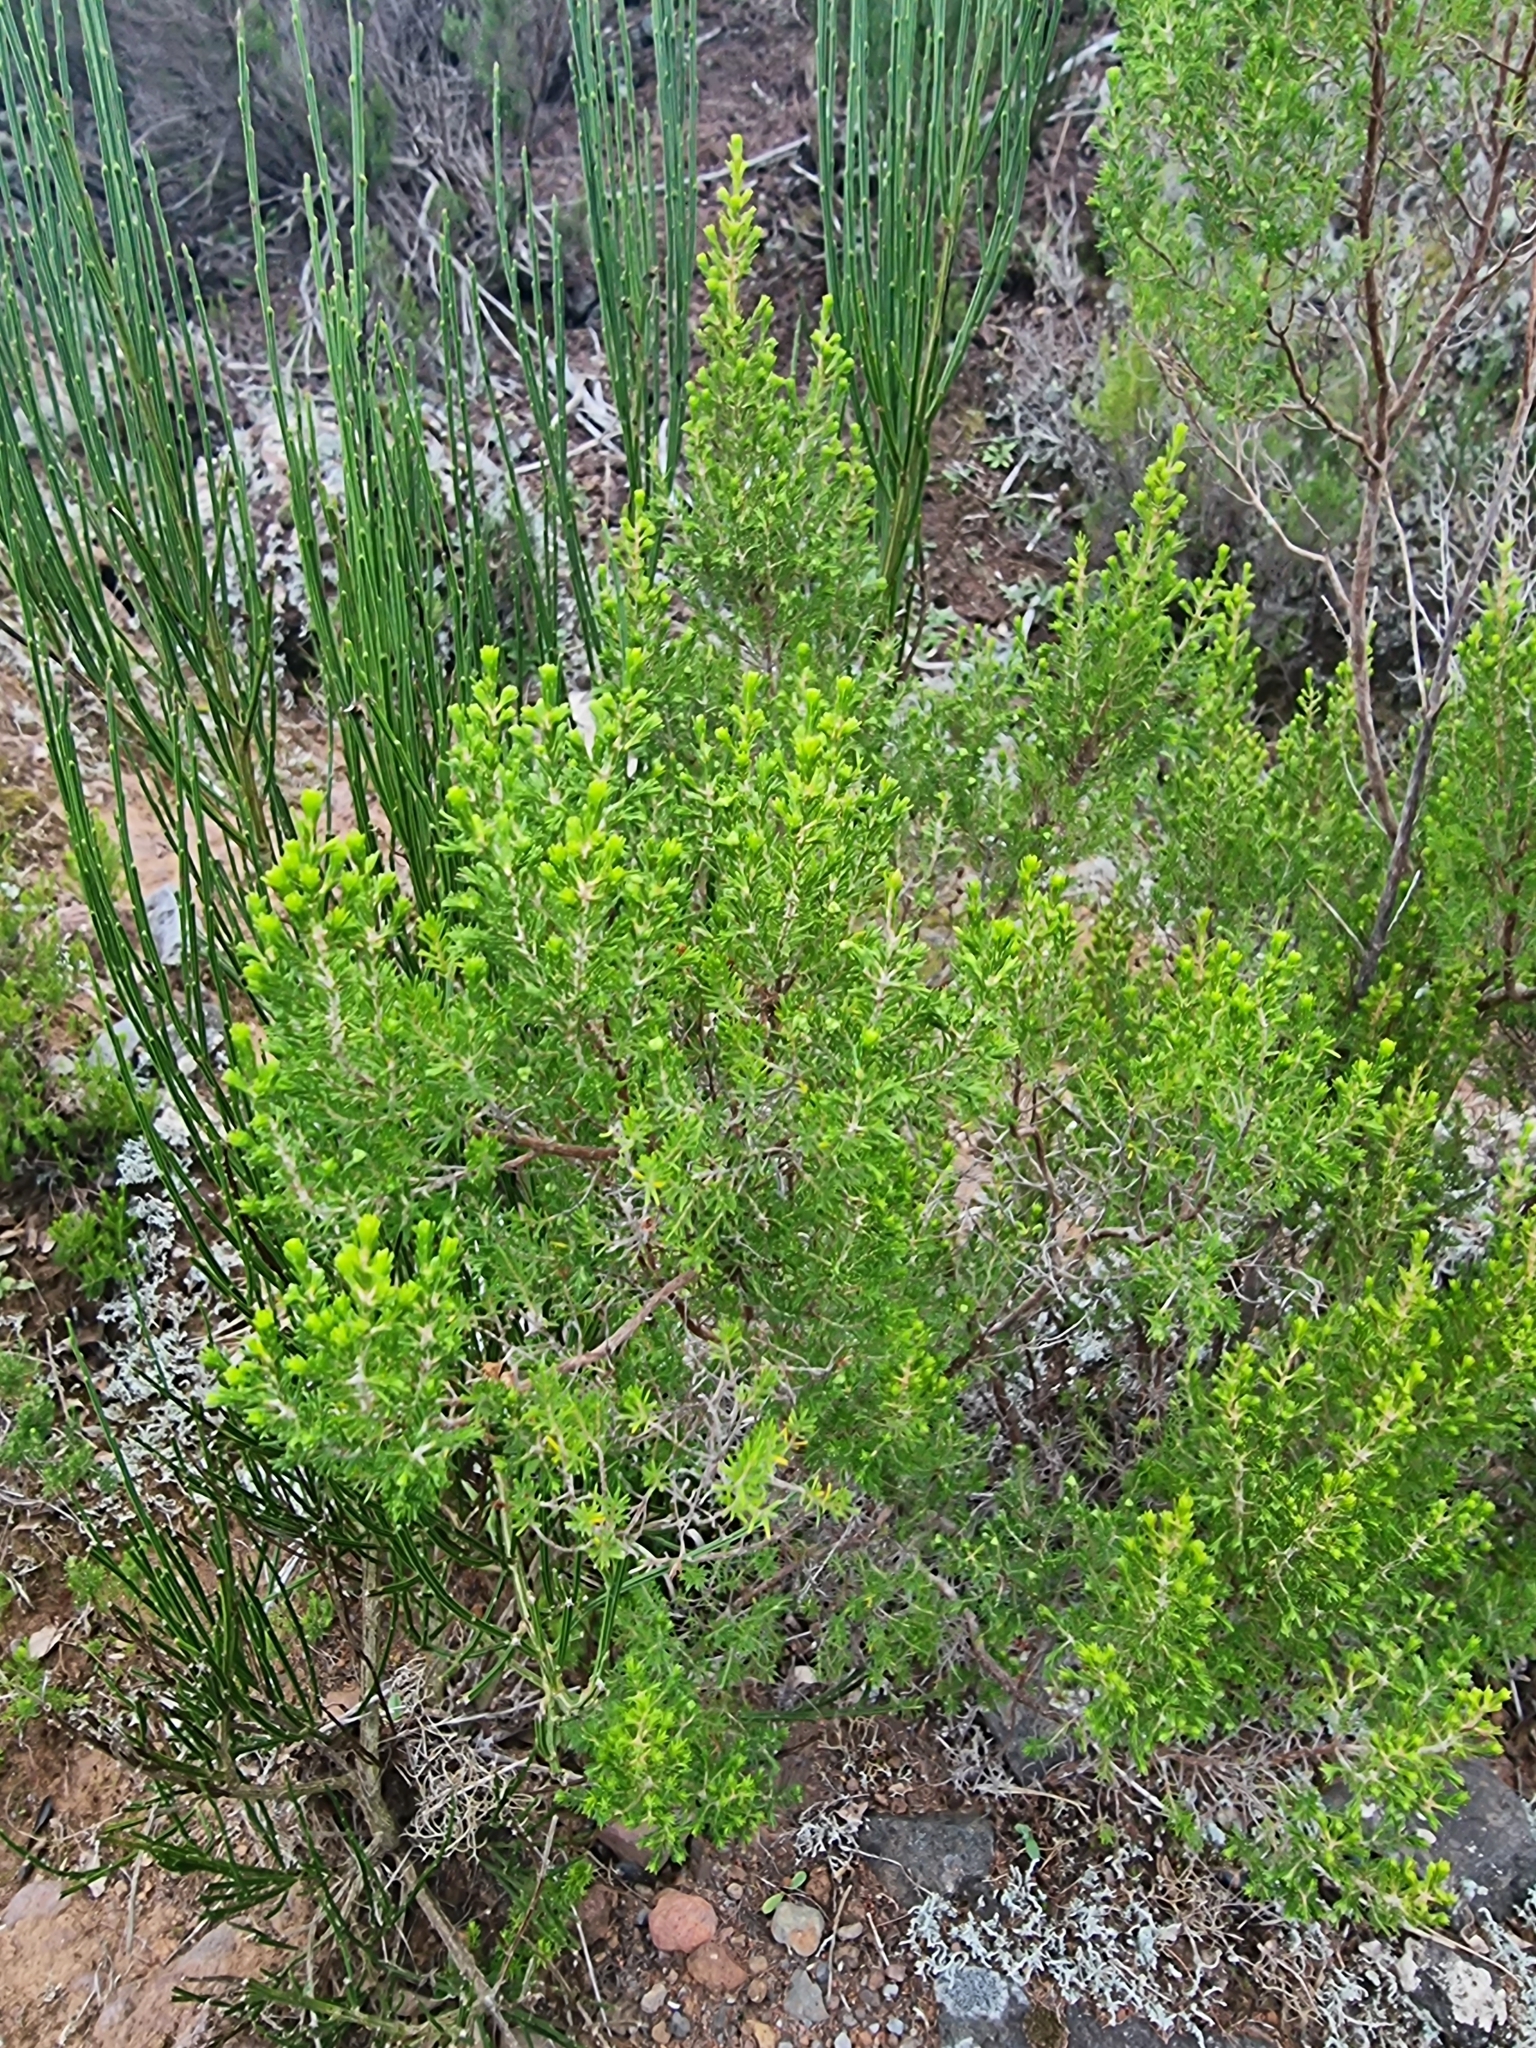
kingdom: Plantae
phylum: Tracheophyta
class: Magnoliopsida
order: Ericales
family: Ericaceae
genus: Erica
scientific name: Erica canariensis
